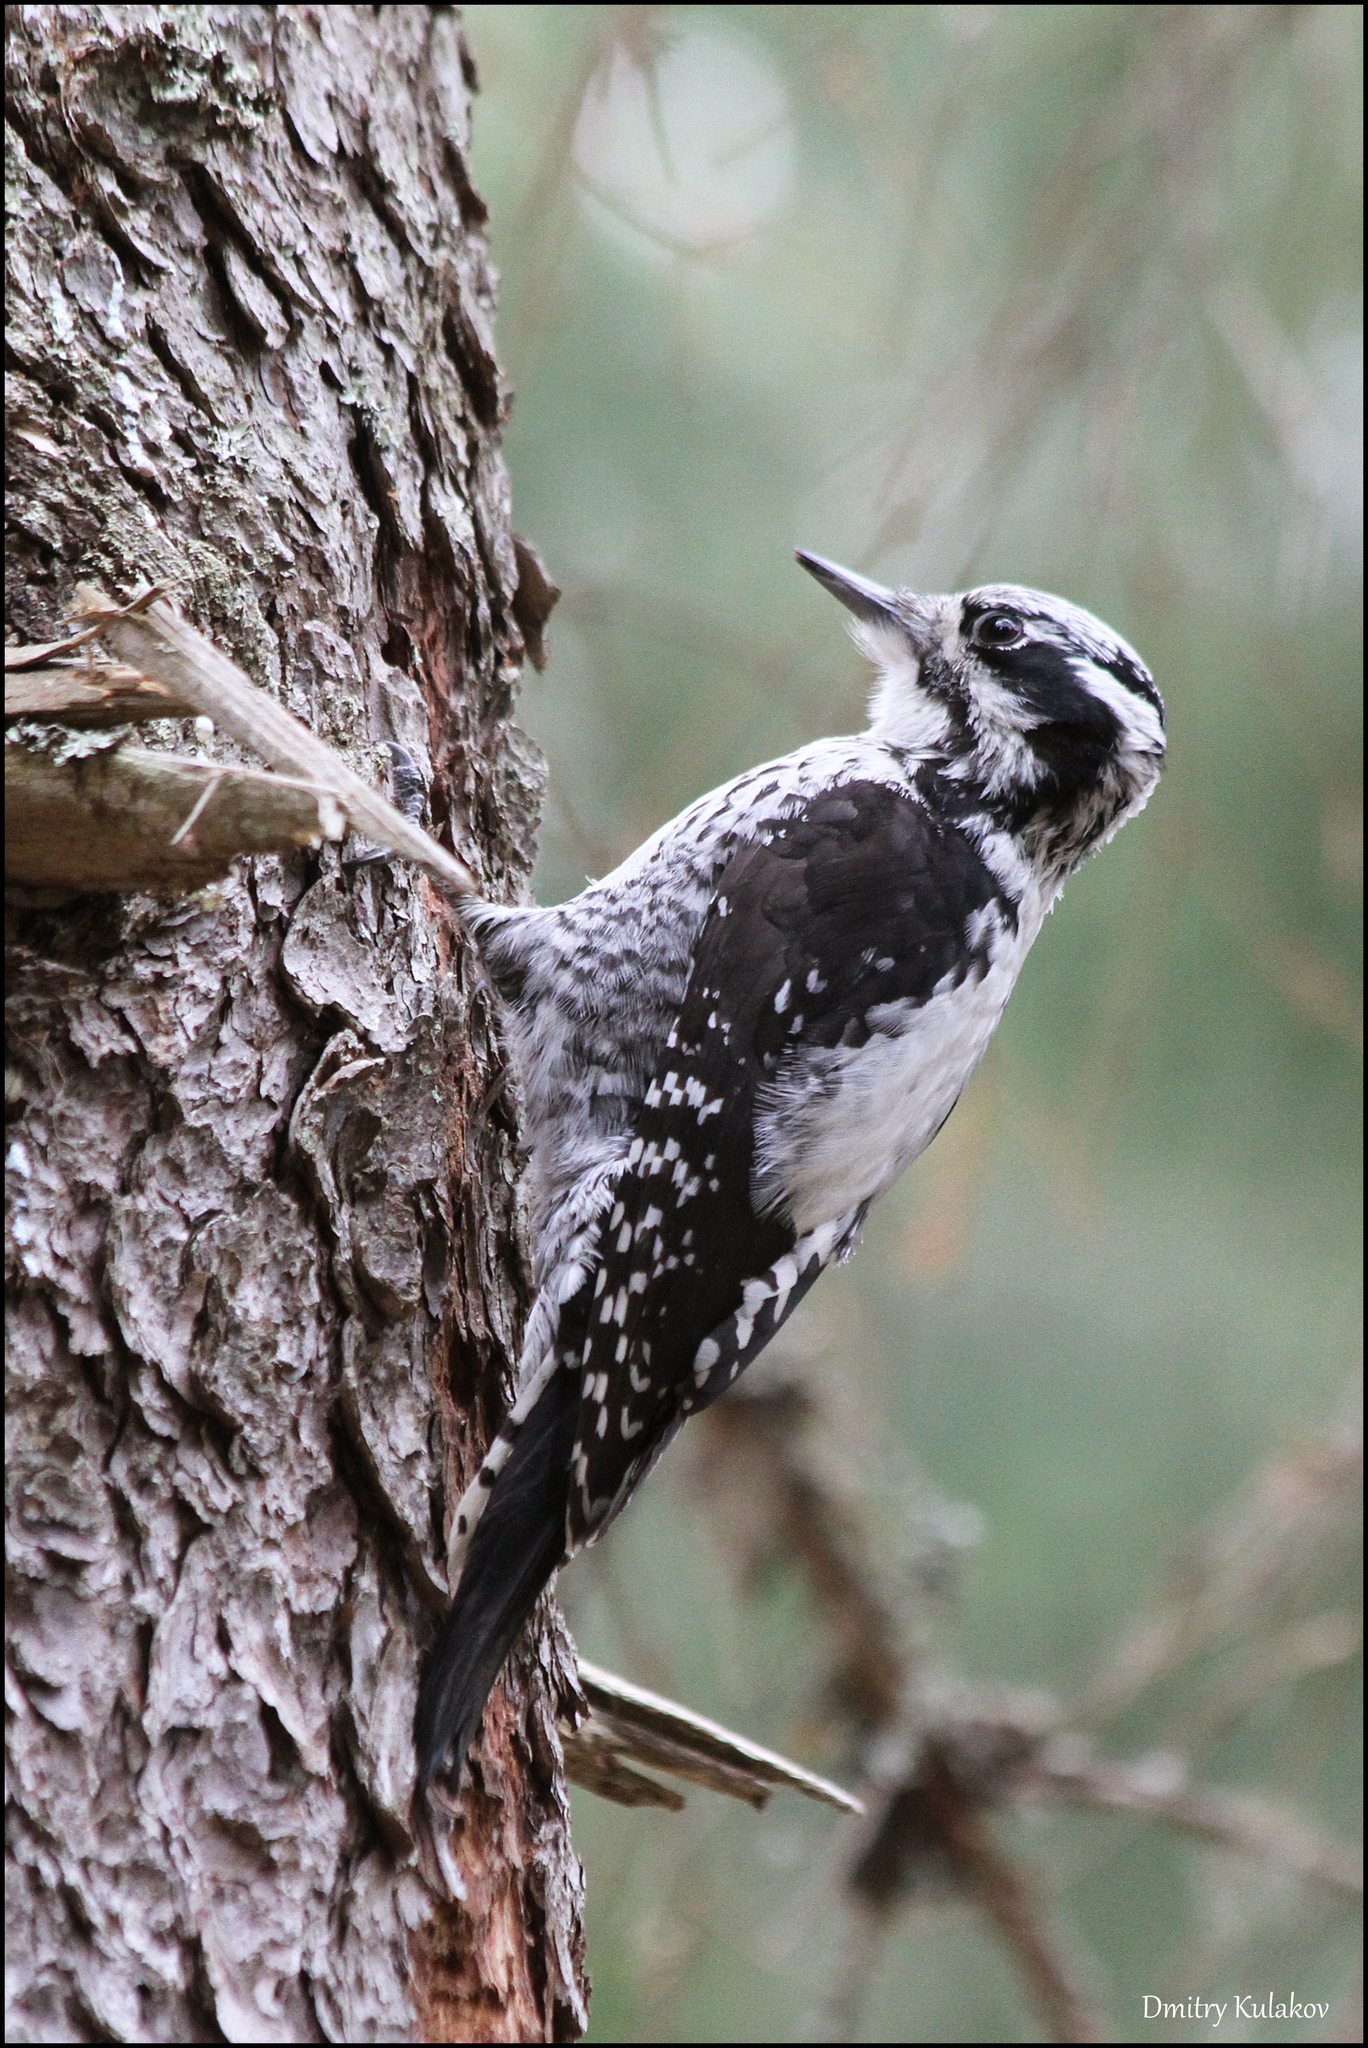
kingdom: Animalia
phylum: Chordata
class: Aves
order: Piciformes
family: Picidae
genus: Picoides
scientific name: Picoides tridactylus
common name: Eurasian three-toed woodpecker
